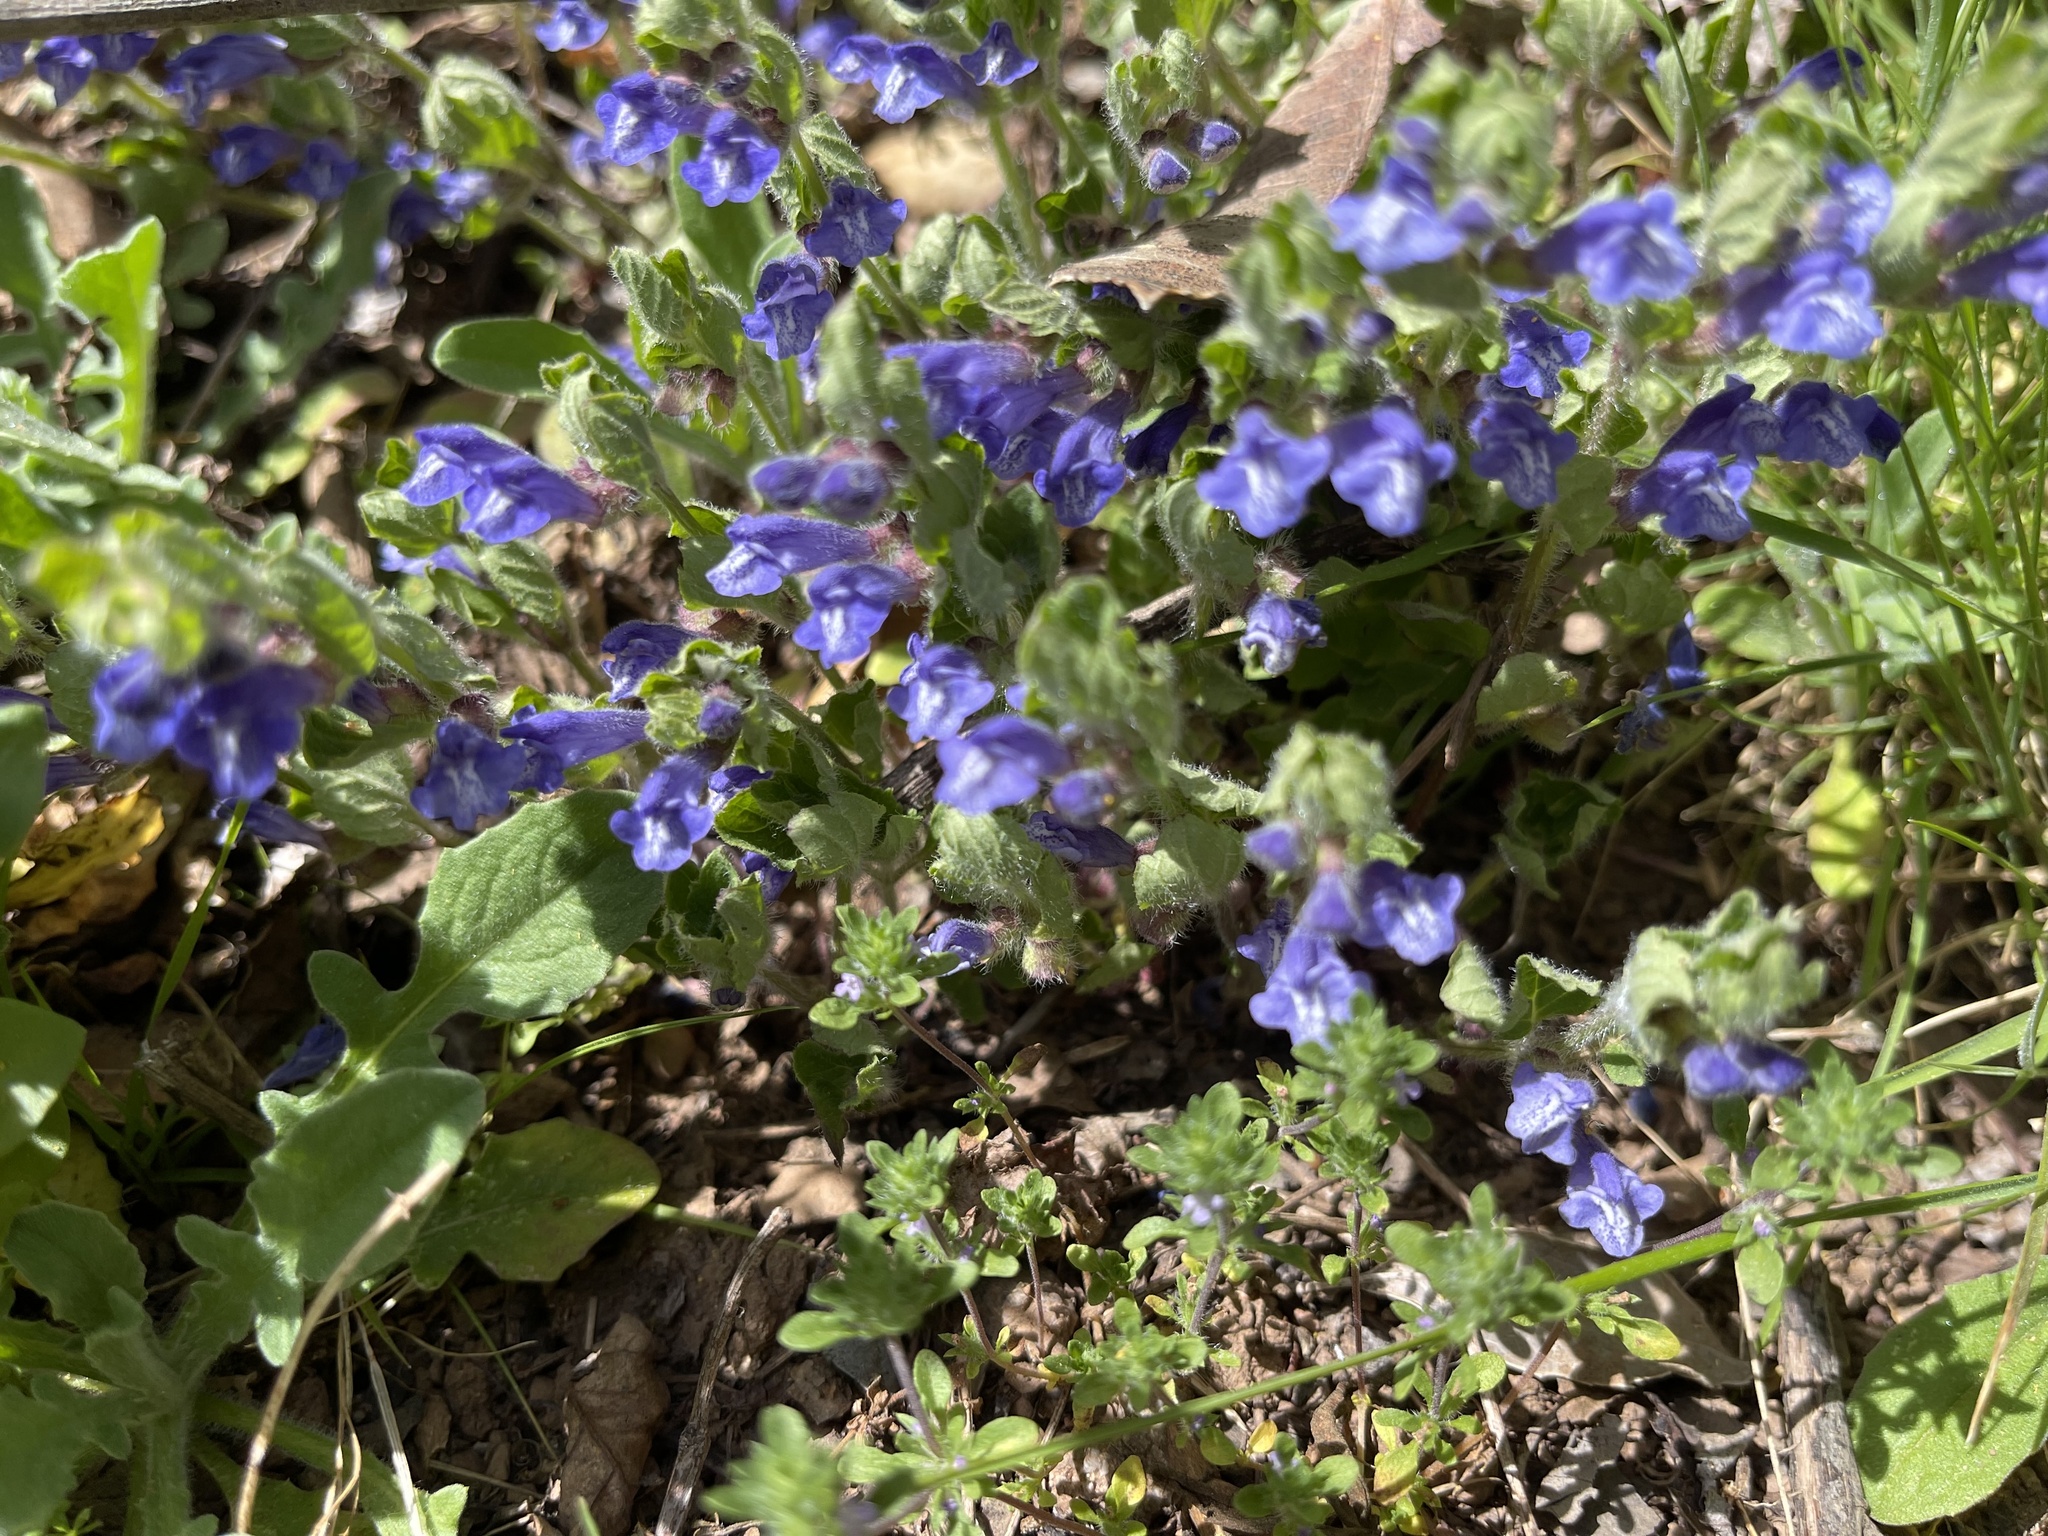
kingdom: Plantae
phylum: Tracheophyta
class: Magnoliopsida
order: Lamiales
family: Lamiaceae
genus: Scutellaria
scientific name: Scutellaria tuberosa
